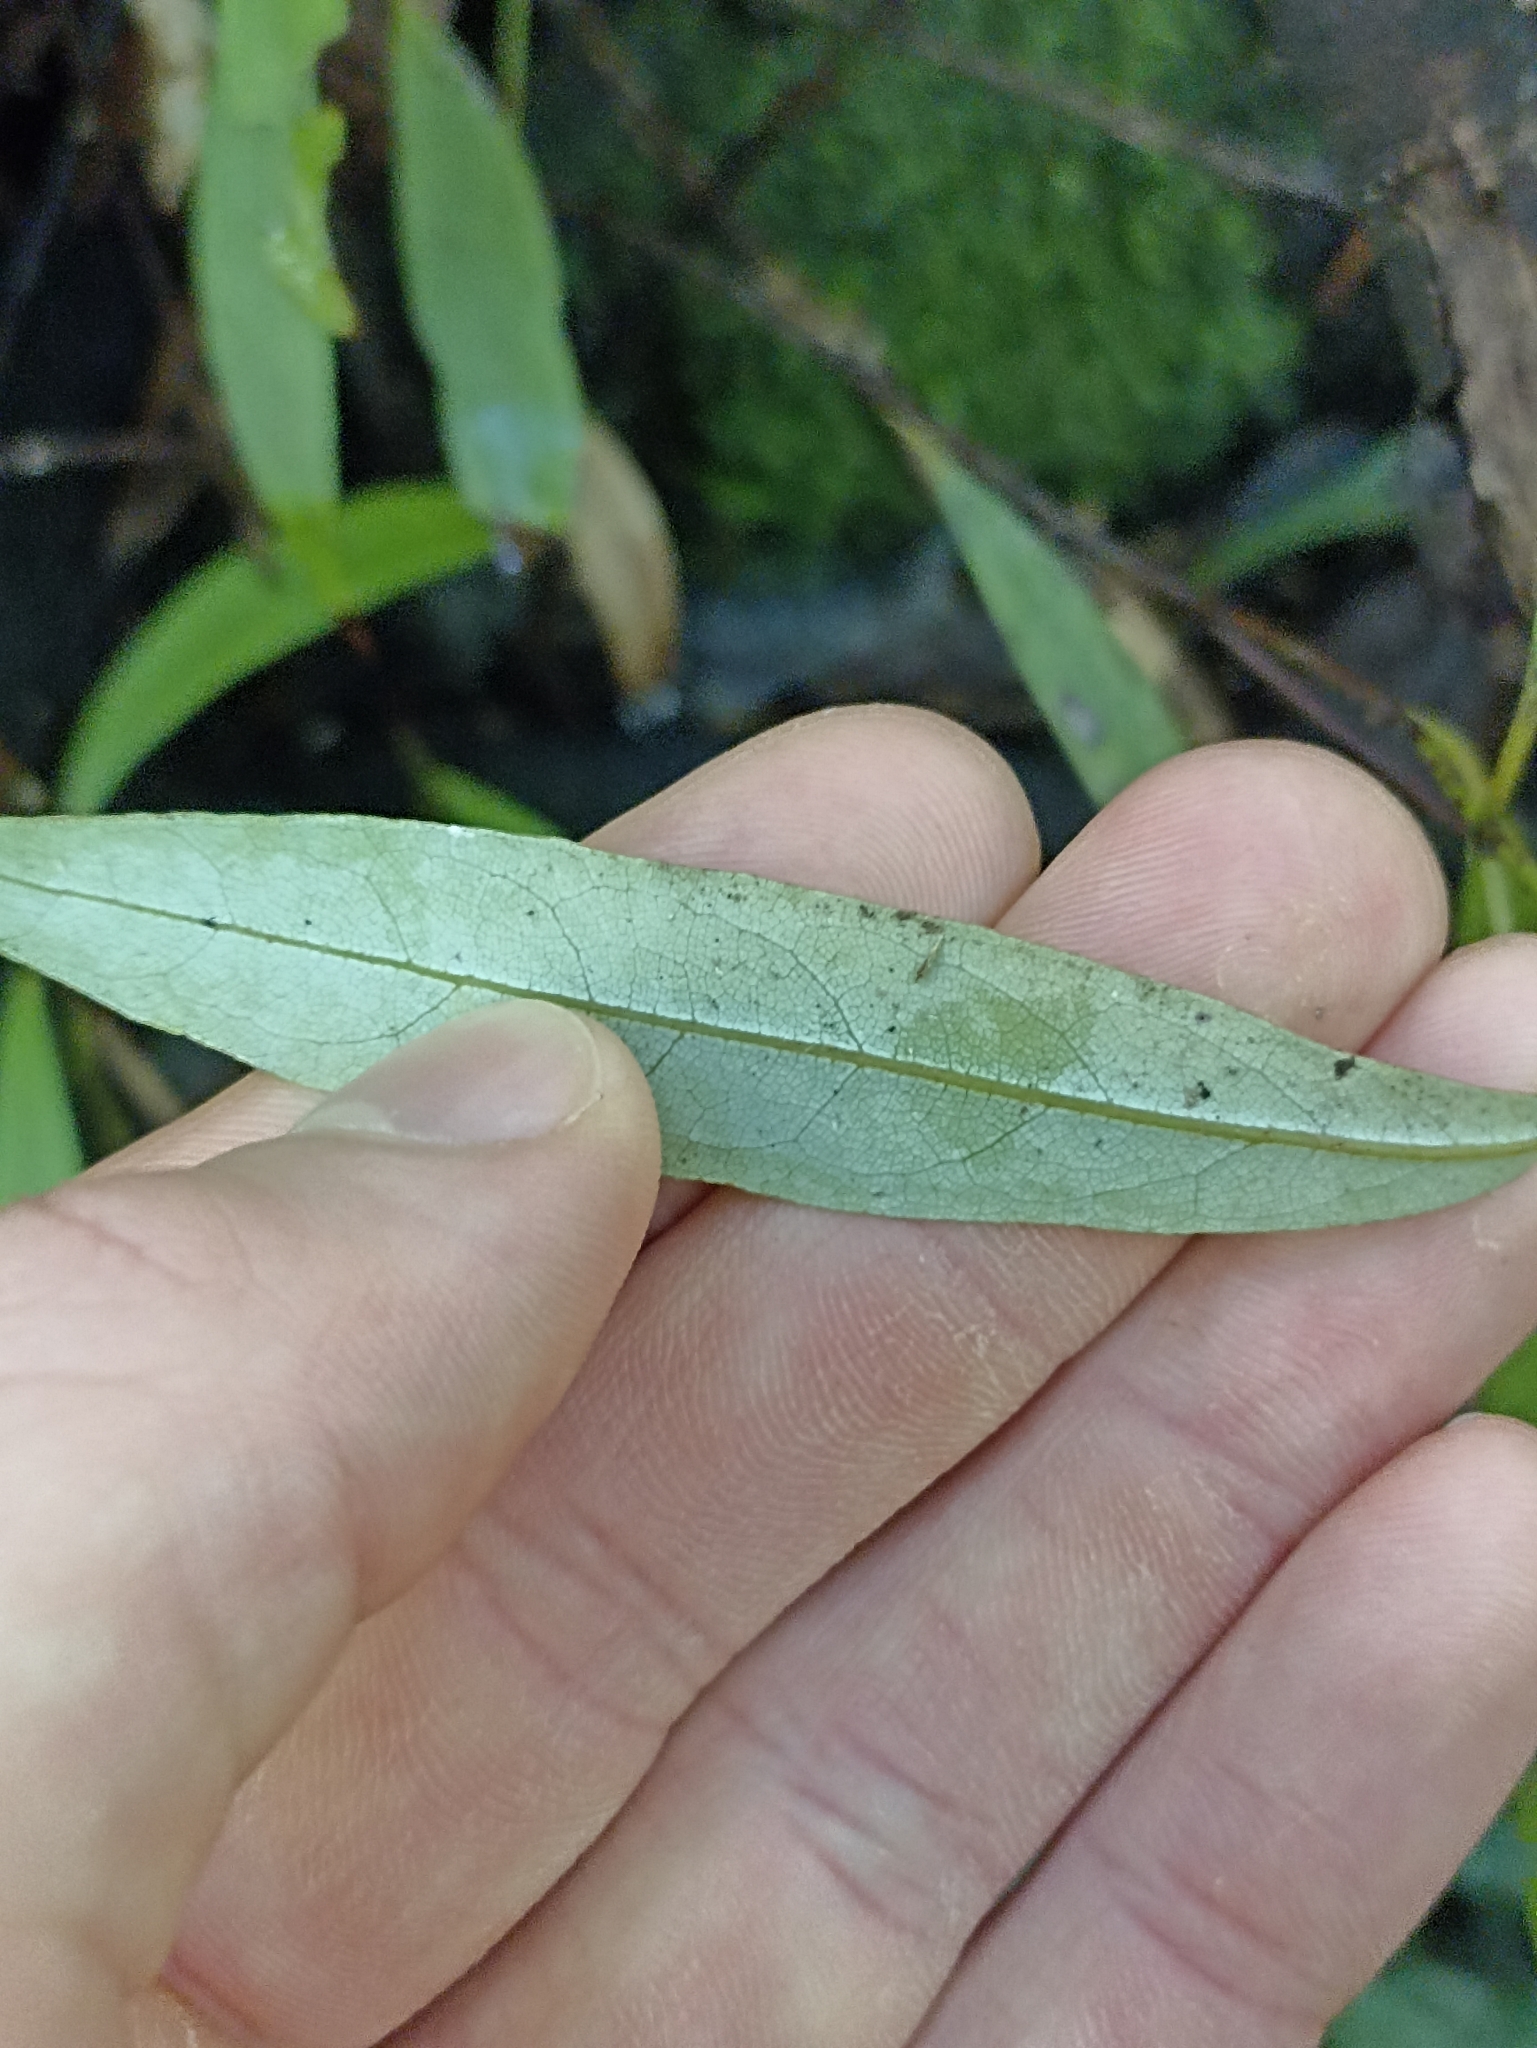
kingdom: Plantae
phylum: Tracheophyta
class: Magnoliopsida
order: Laurales
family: Lauraceae
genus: Beilschmiedia
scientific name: Beilschmiedia tawa
